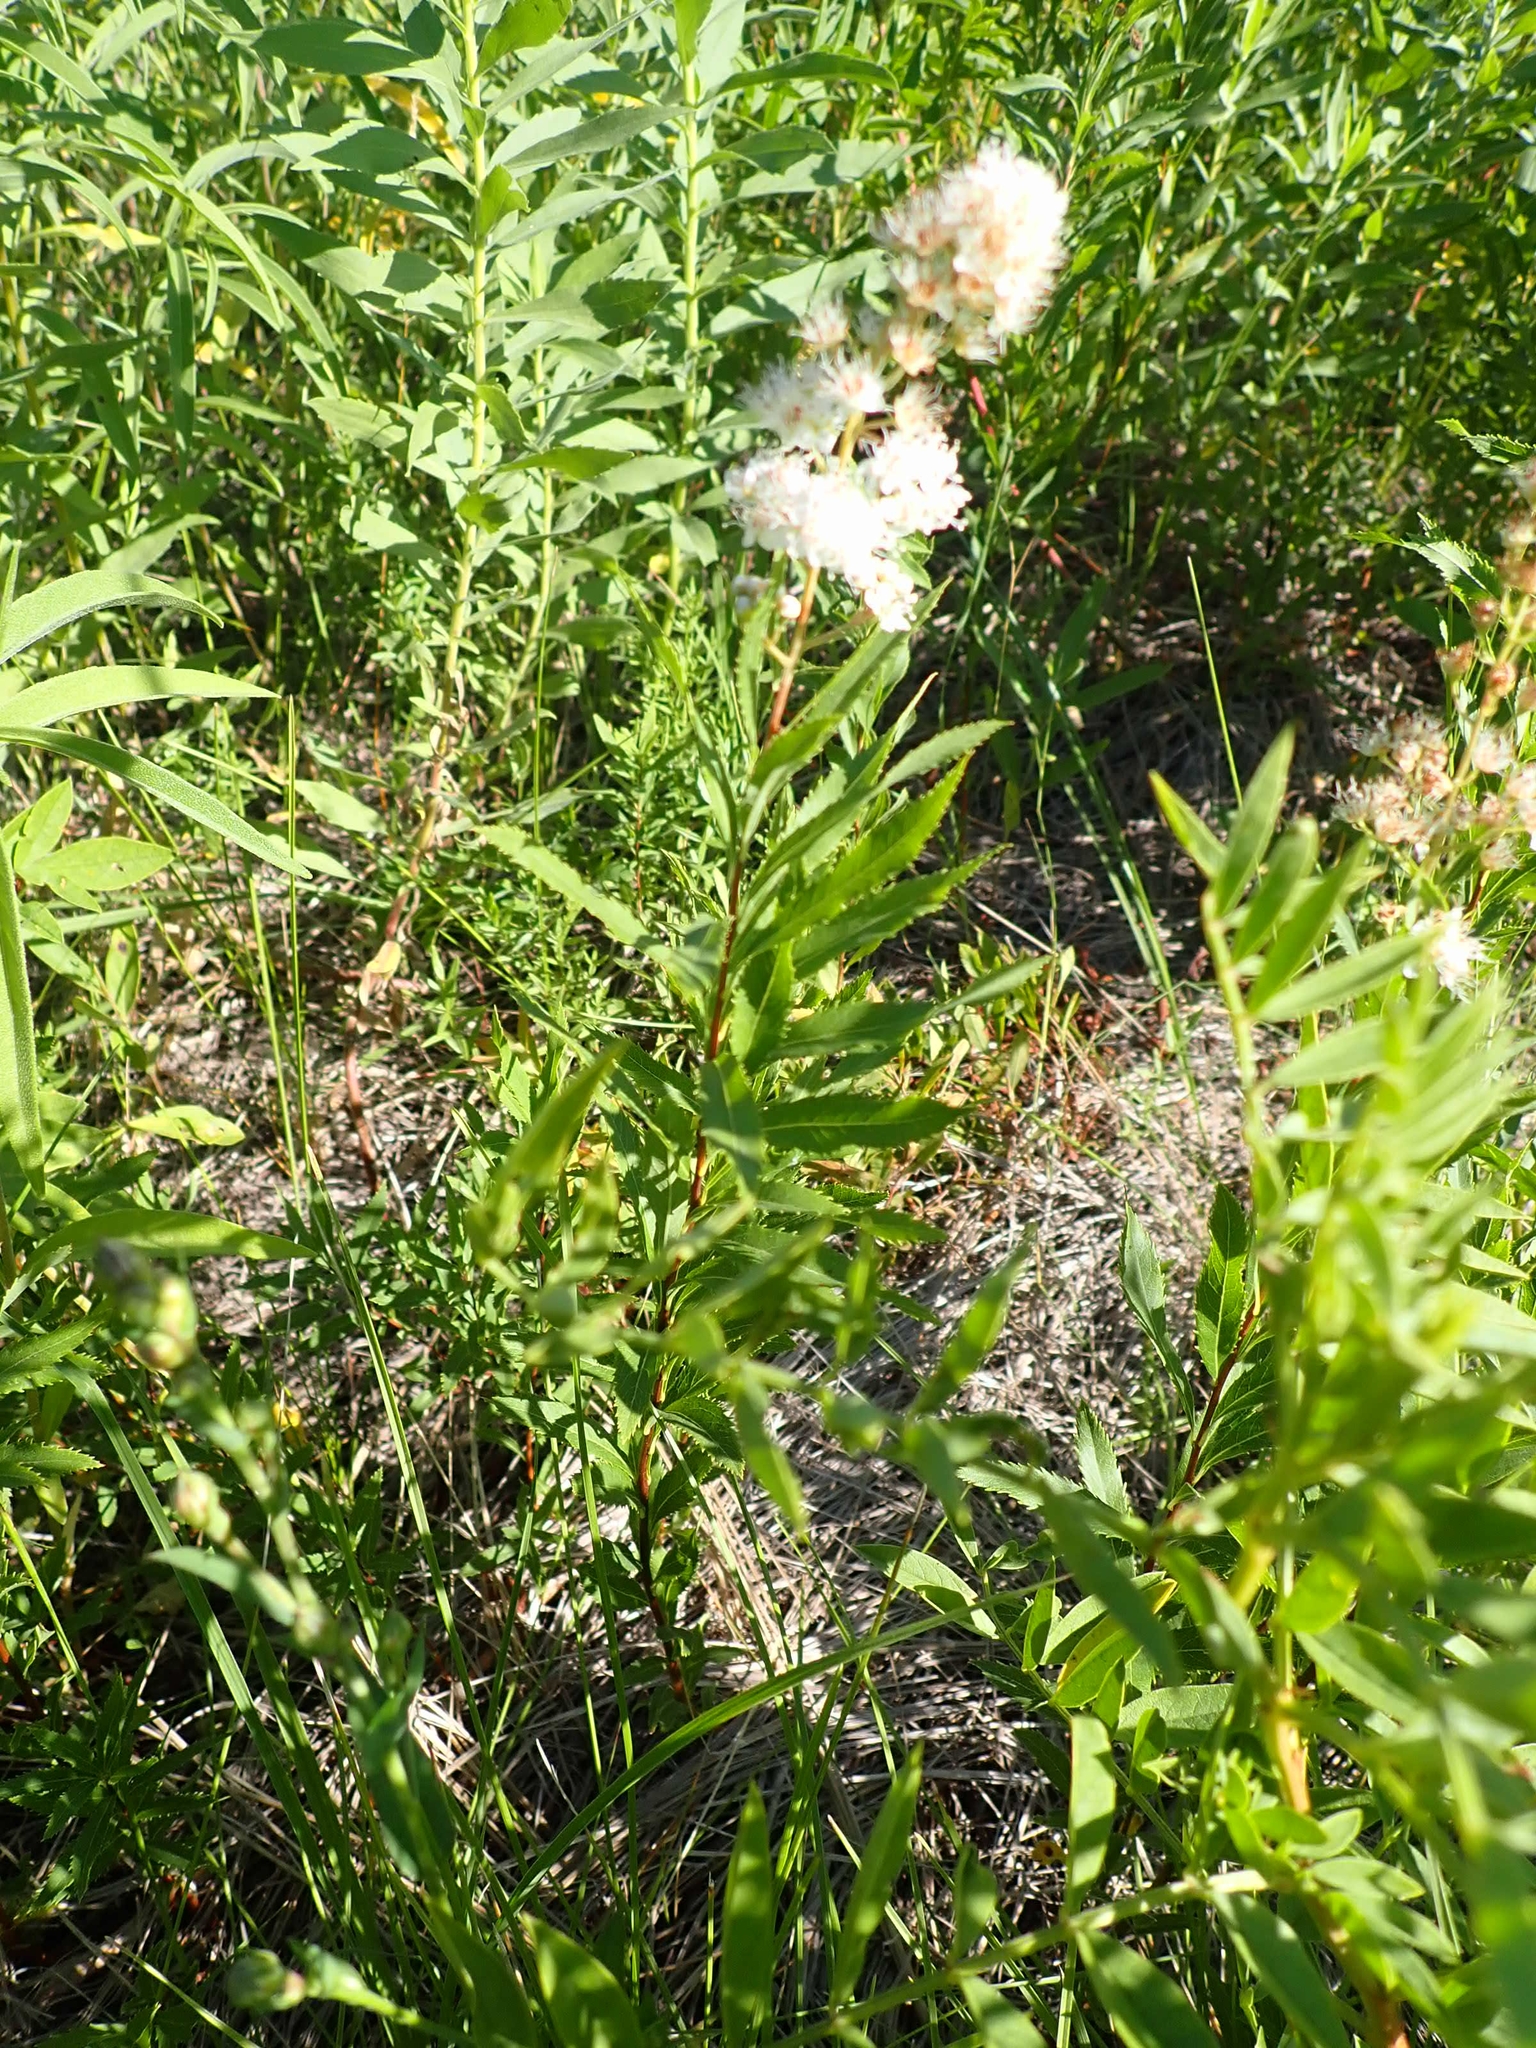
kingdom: Plantae
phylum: Tracheophyta
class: Magnoliopsida
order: Rosales
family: Rosaceae
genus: Spiraea
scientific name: Spiraea alba
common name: Pale bridewort
